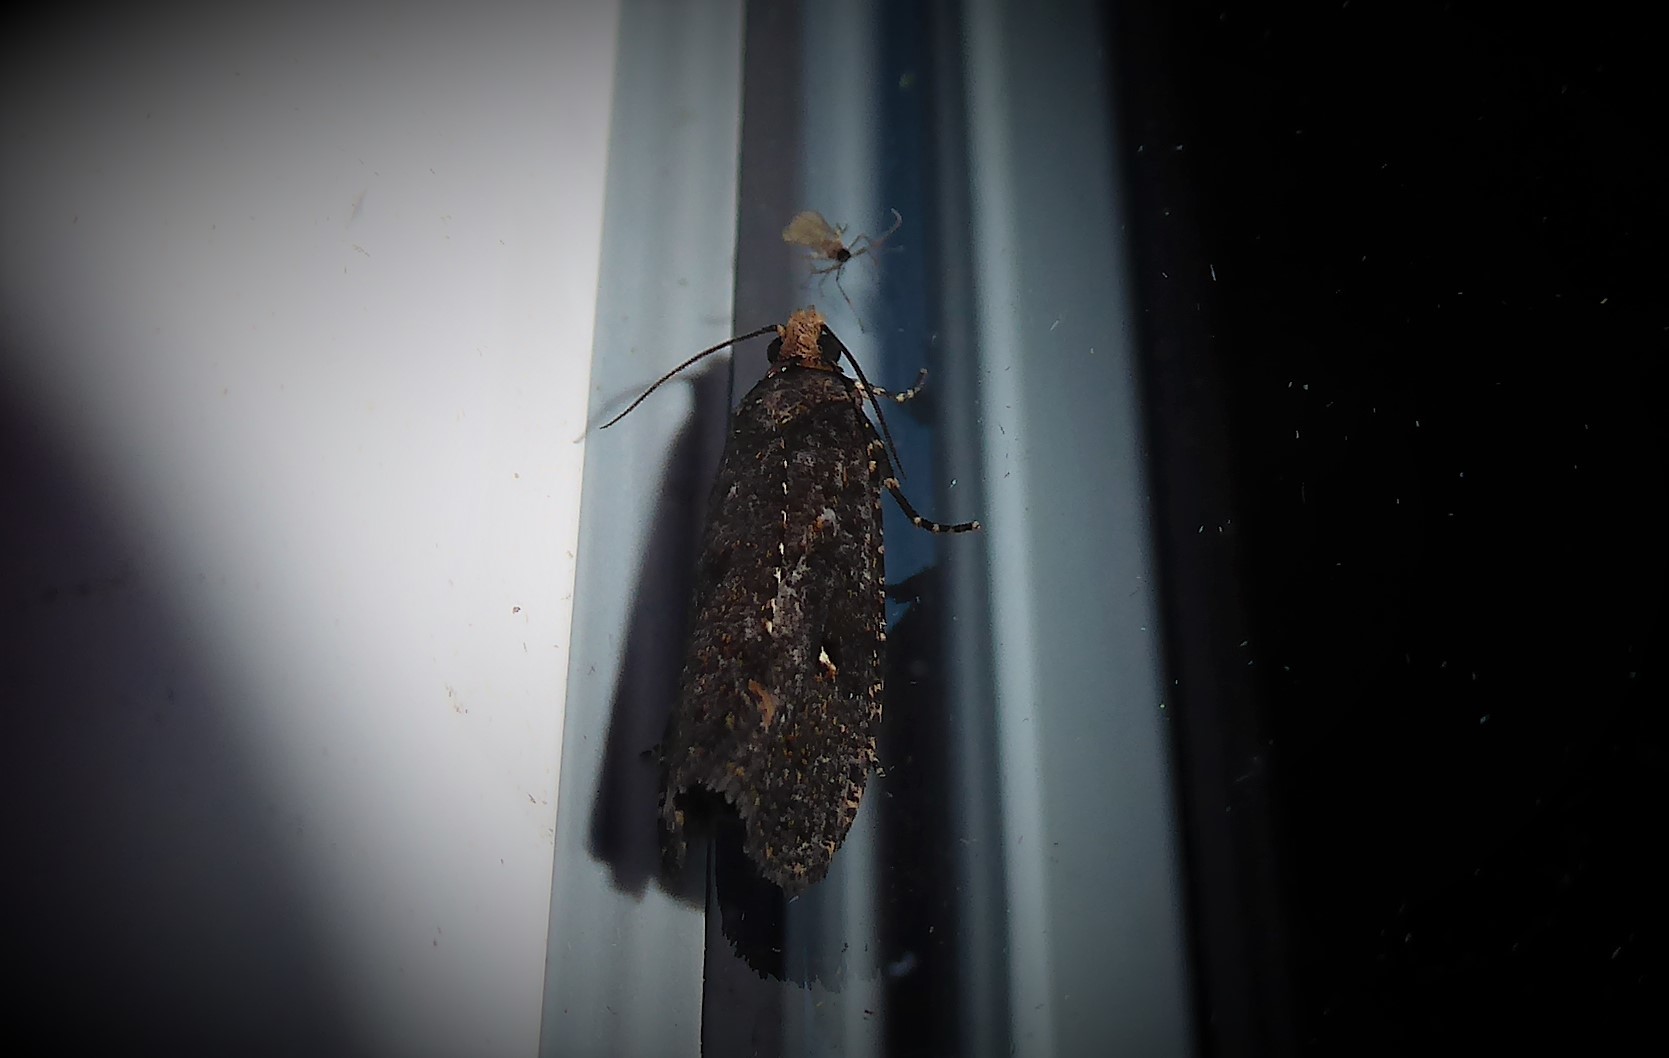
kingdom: Animalia
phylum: Arthropoda
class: Insecta
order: Lepidoptera
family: Tortricidae
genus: Cryptaspasma
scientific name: Cryptaspasma querula
